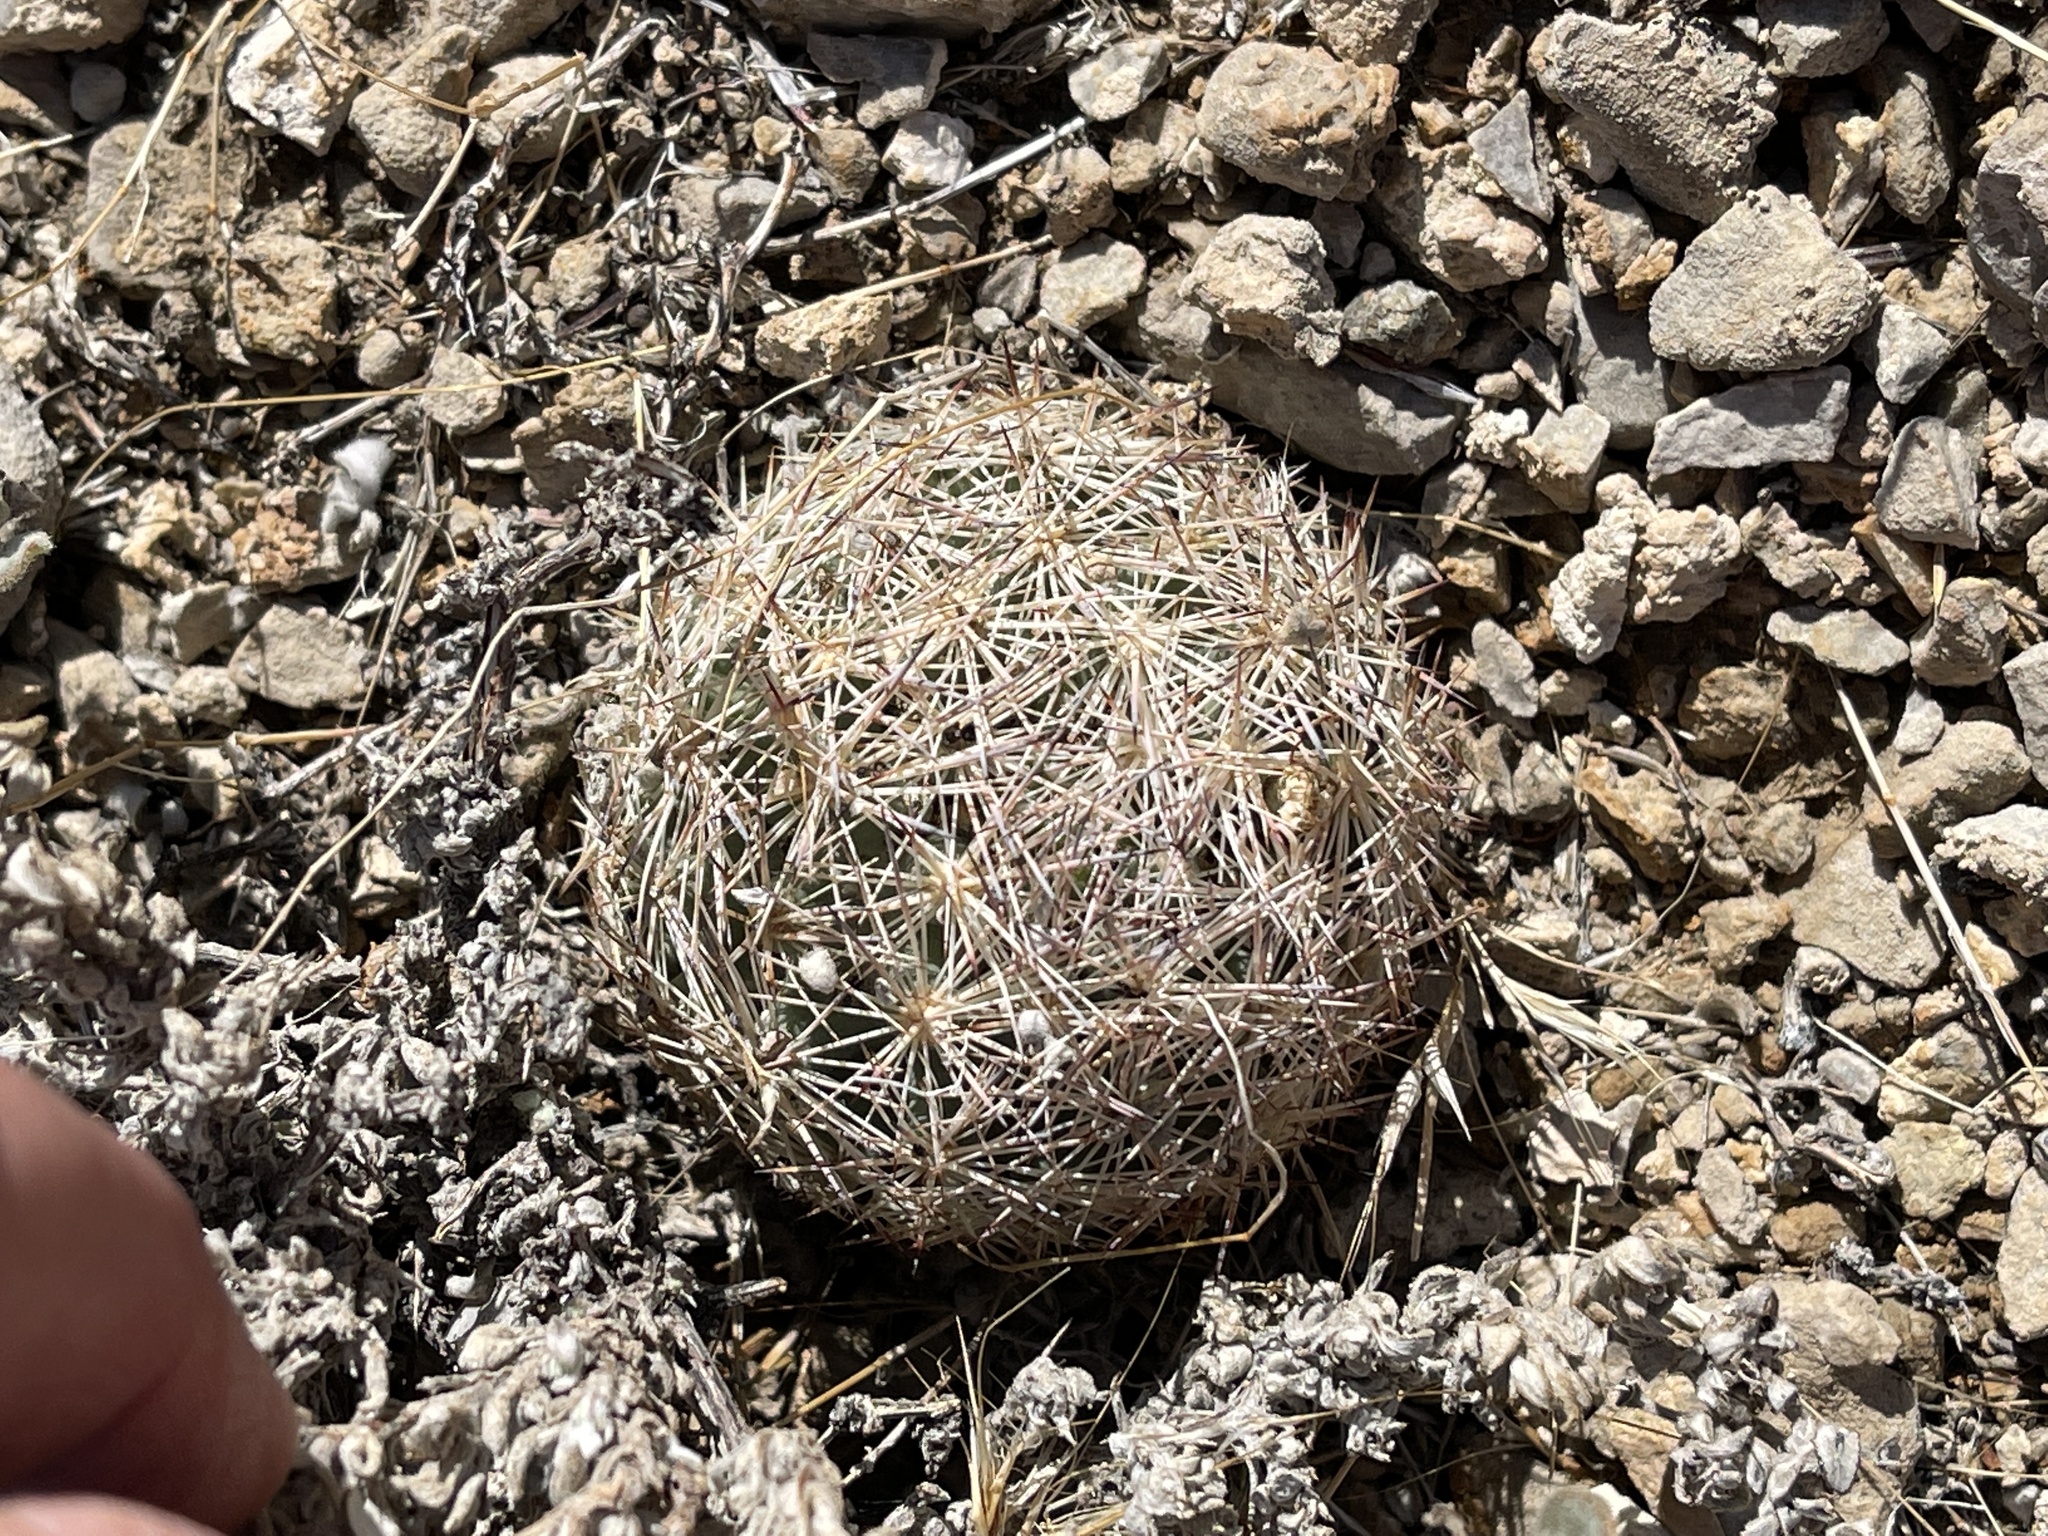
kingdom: Plantae
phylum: Tracheophyta
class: Magnoliopsida
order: Caryophyllales
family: Cactaceae
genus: Pelecyphora
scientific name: Pelecyphora vivipara
